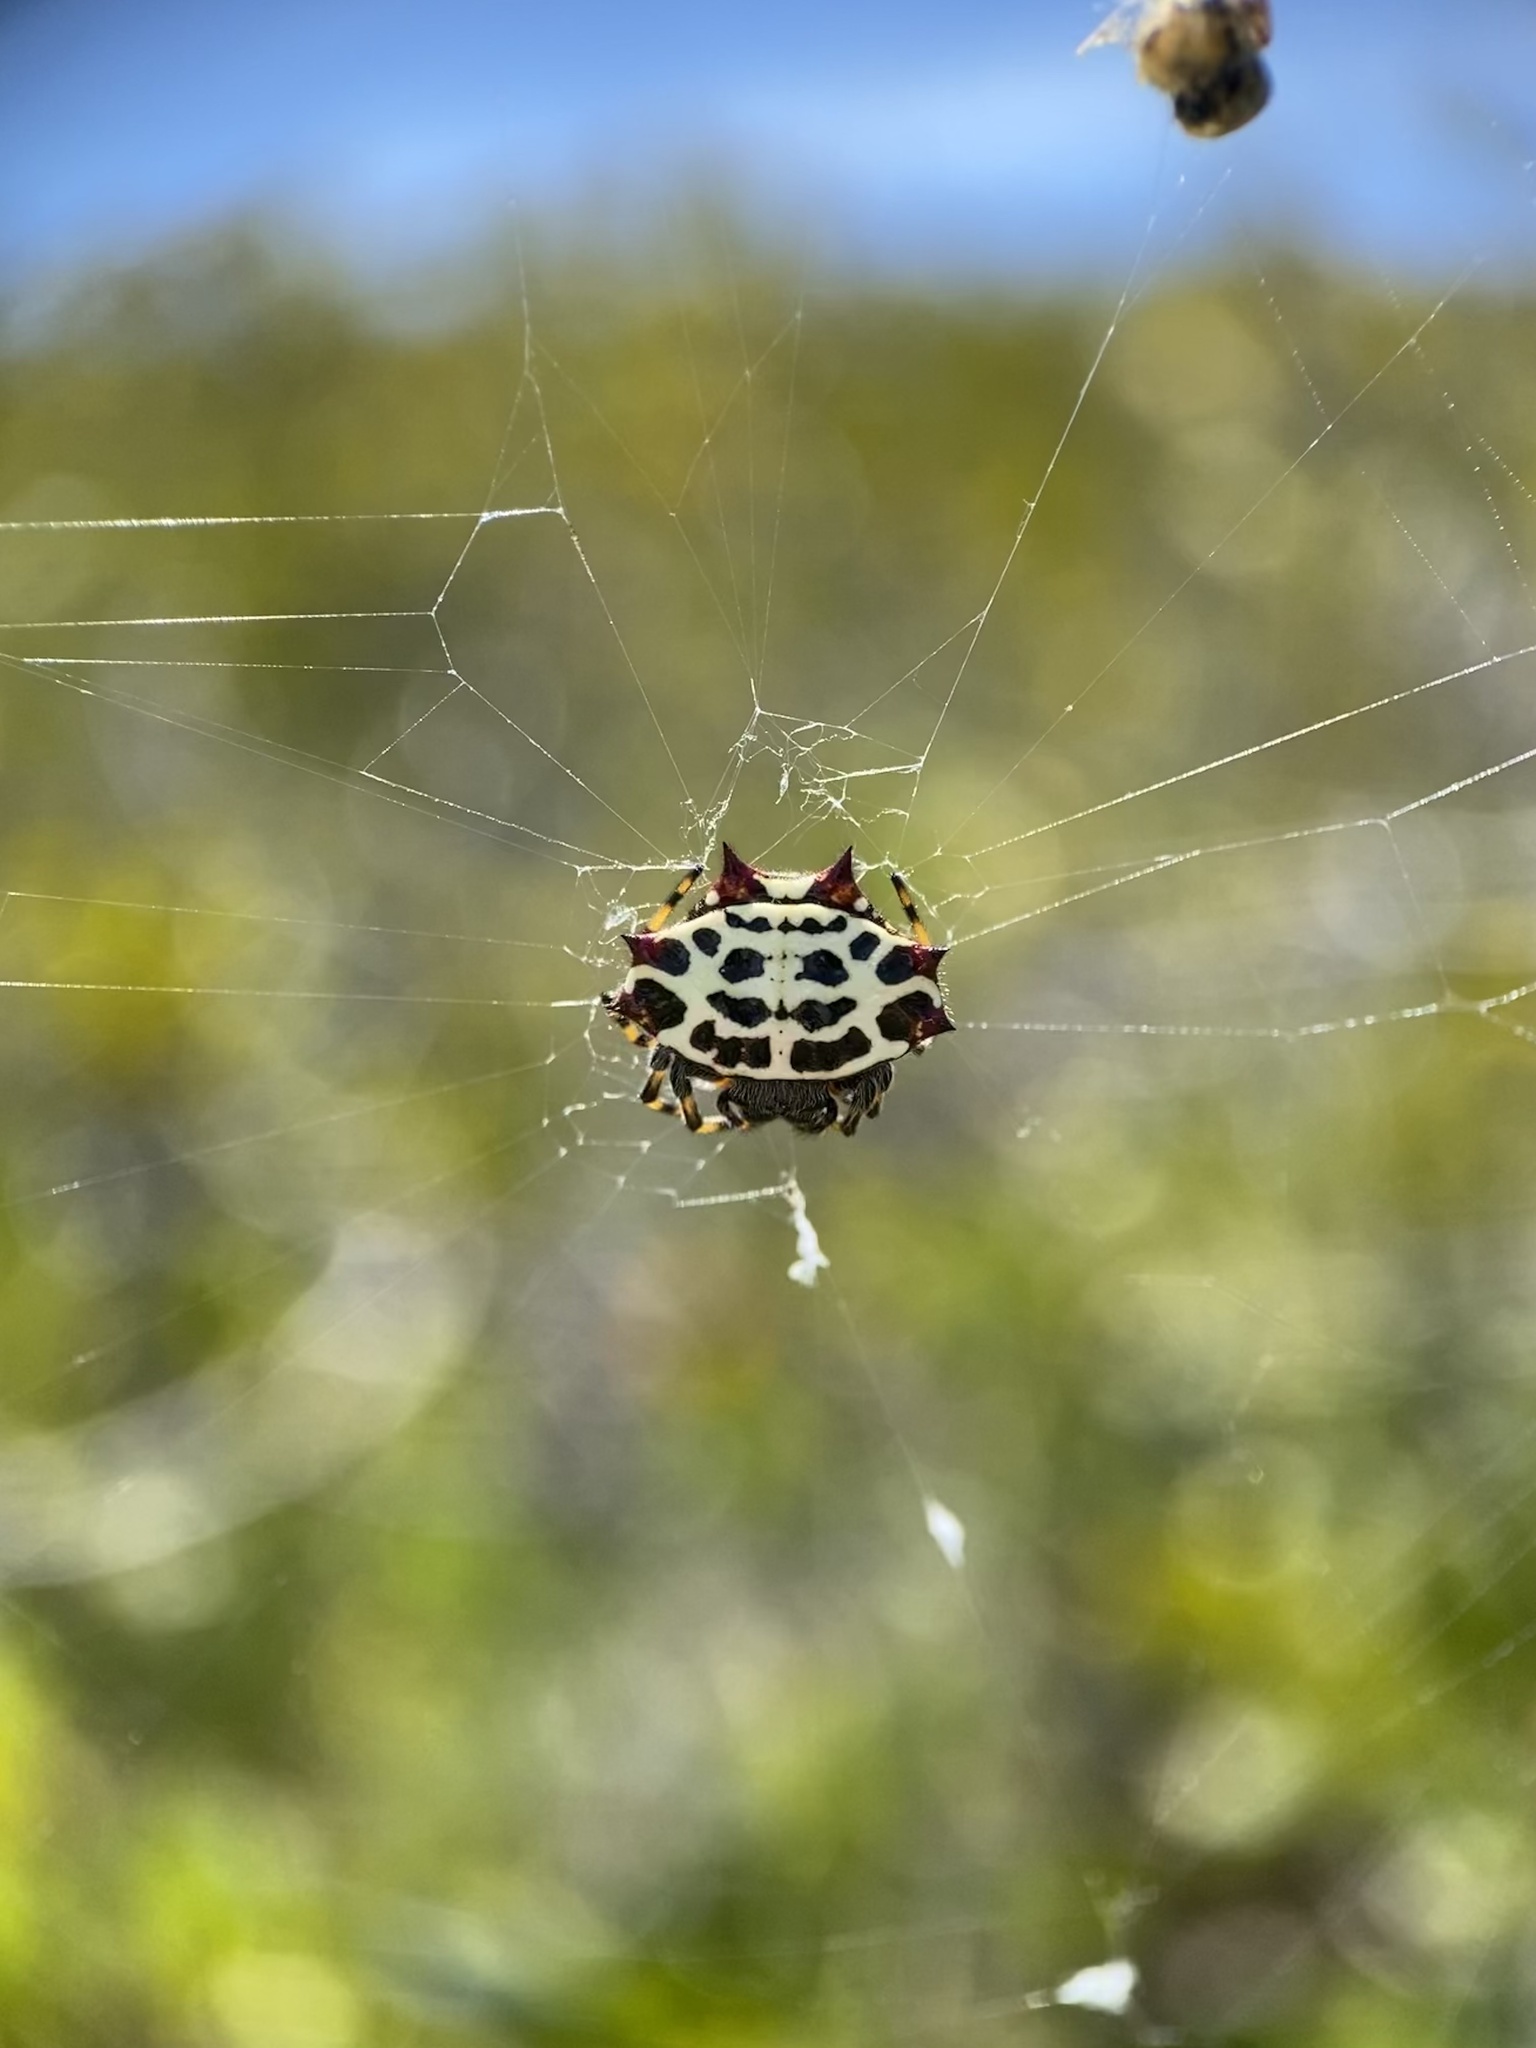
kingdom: Animalia
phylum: Arthropoda
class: Arachnida
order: Araneae
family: Araneidae
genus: Gasteracantha
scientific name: Gasteracantha cancriformis
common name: Orb weavers
